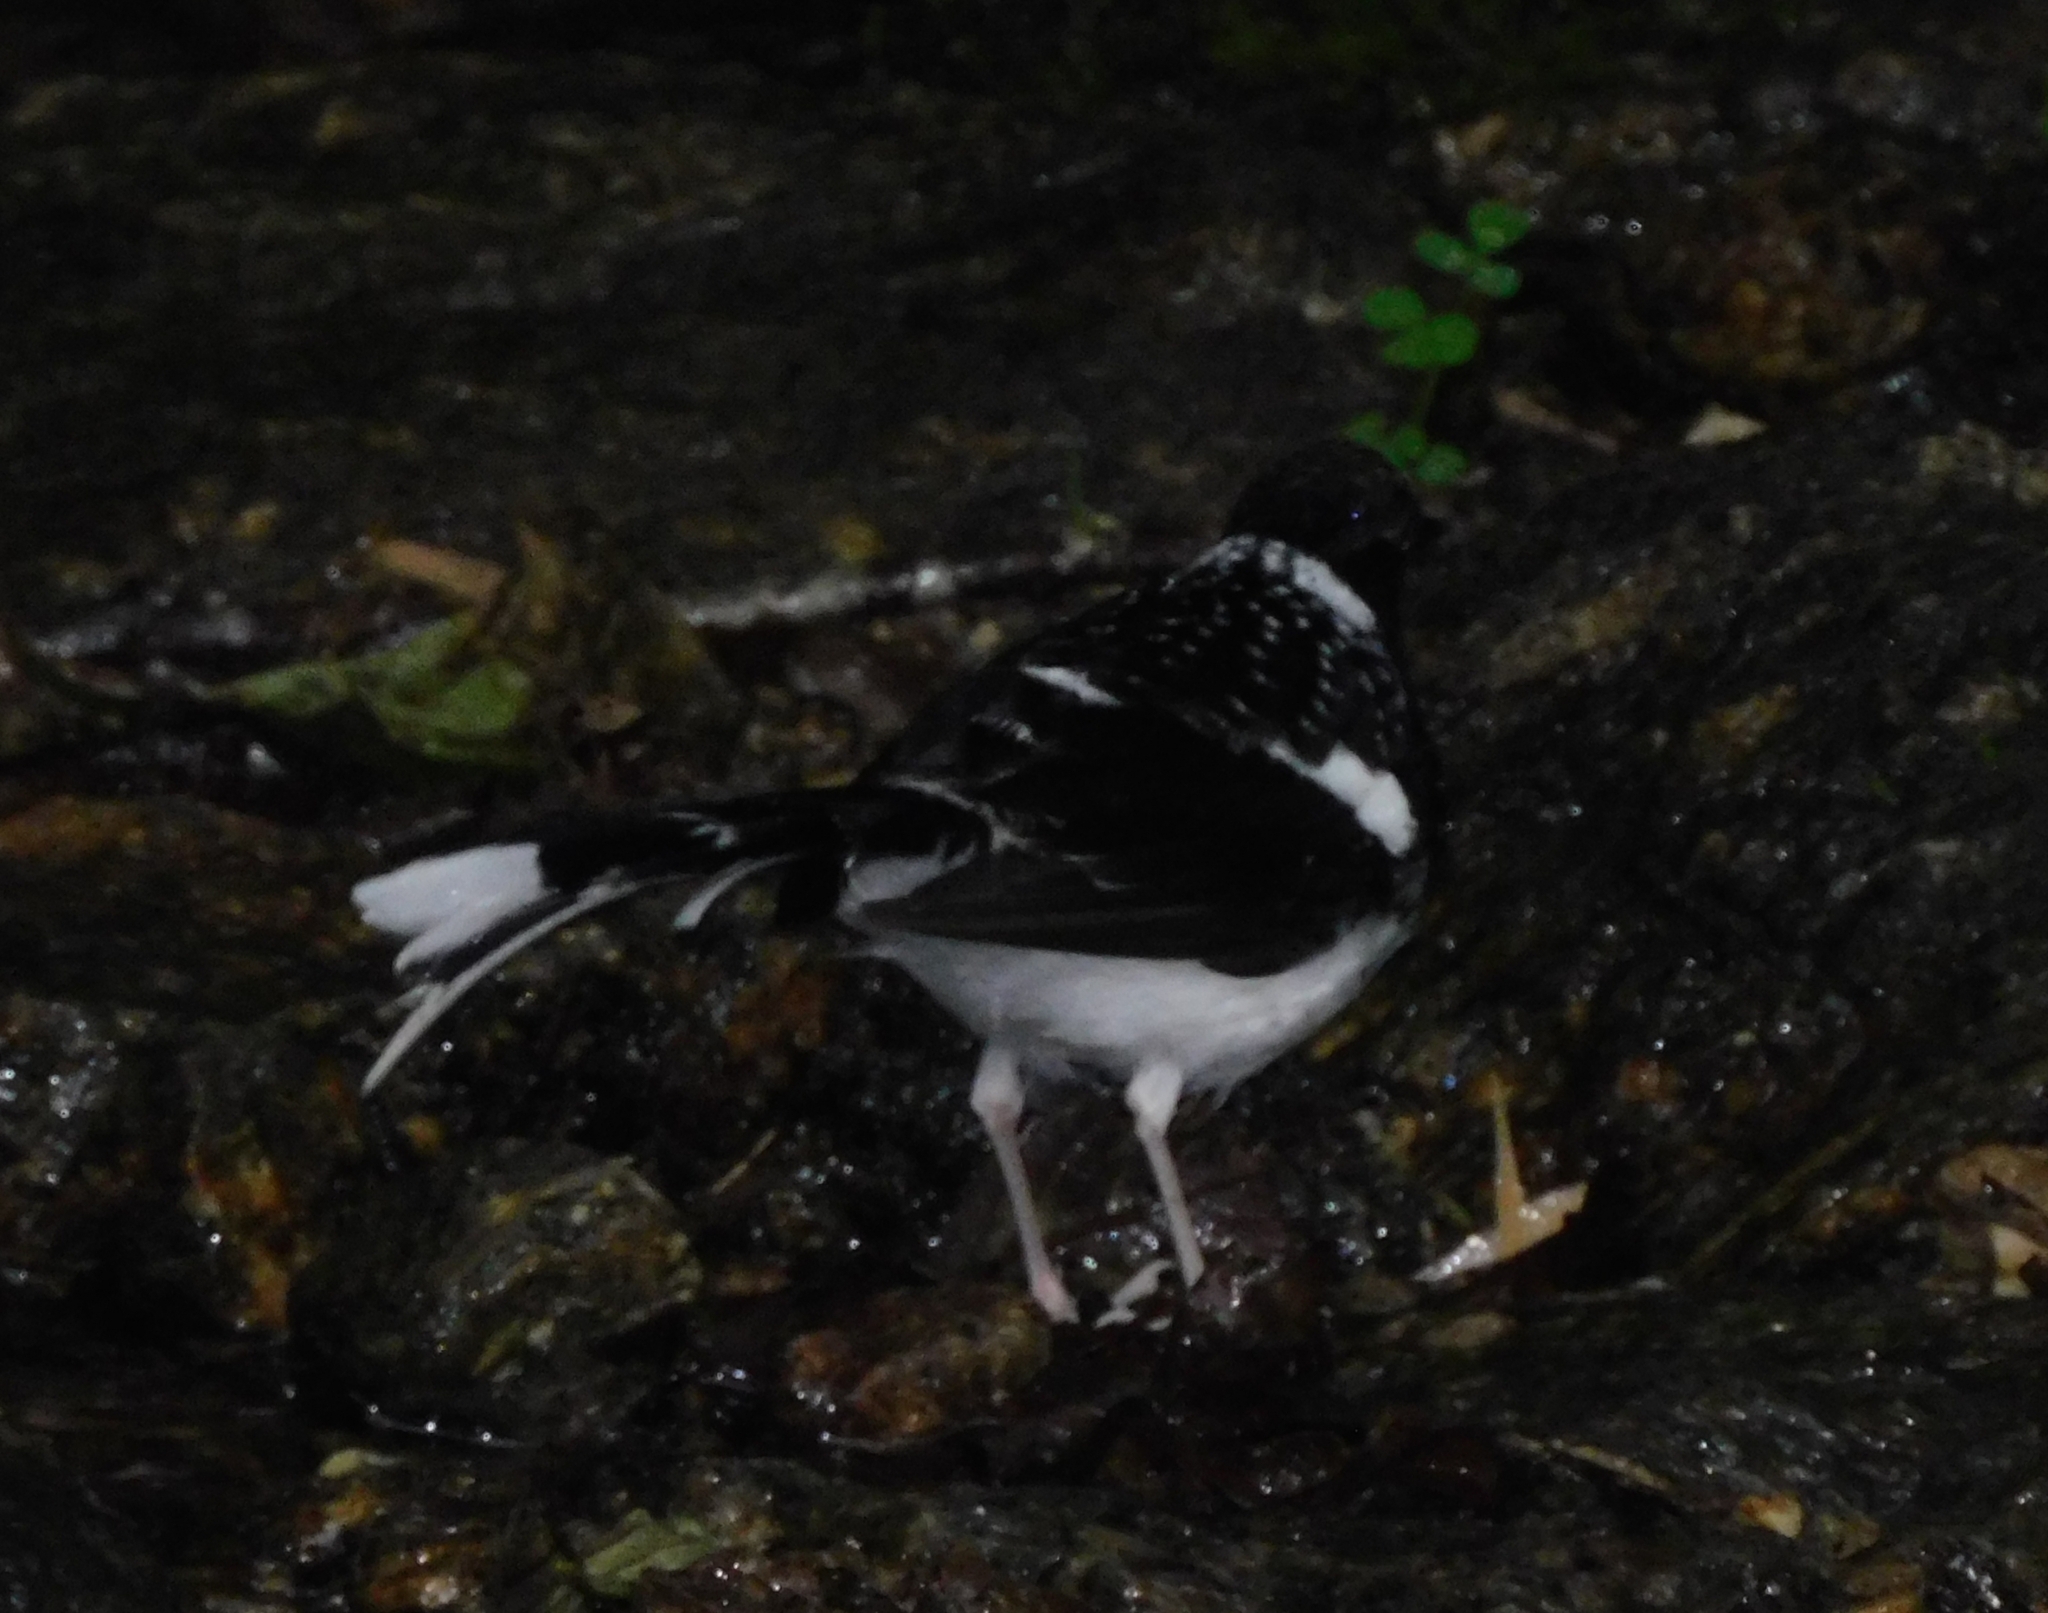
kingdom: Animalia
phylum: Chordata
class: Aves
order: Passeriformes
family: Muscicapidae
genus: Enicurus
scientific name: Enicurus maculatus
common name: Spotted forktail
